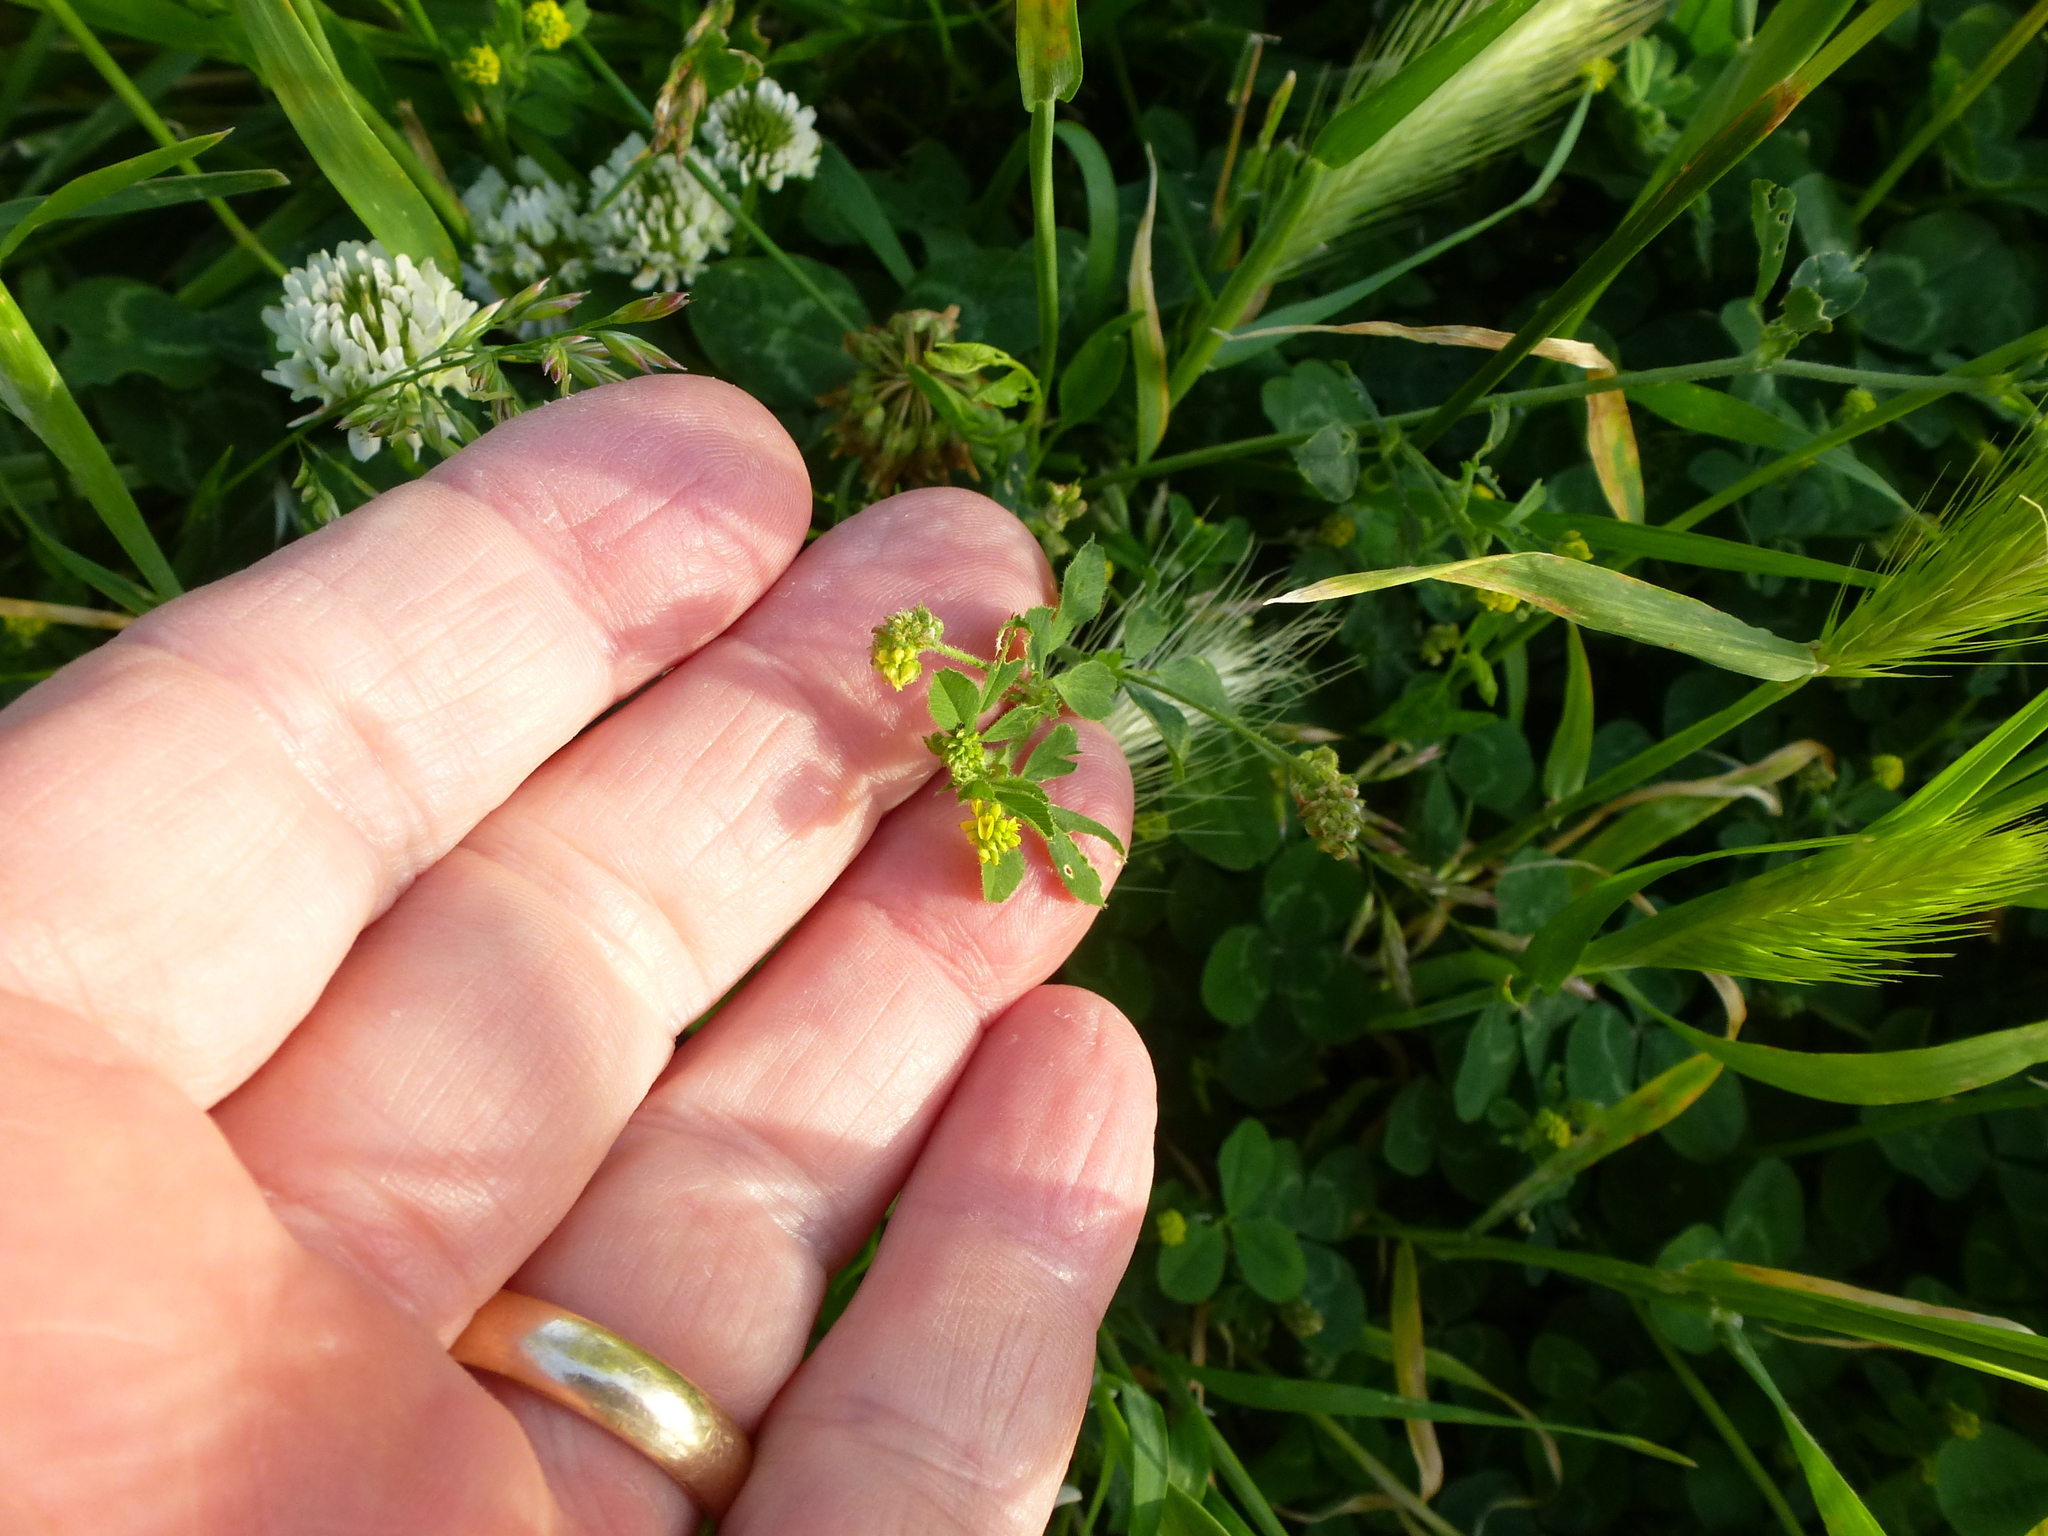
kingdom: Plantae
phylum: Tracheophyta
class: Magnoliopsida
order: Fabales
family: Fabaceae
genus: Medicago
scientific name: Medicago lupulina
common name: Black medick
